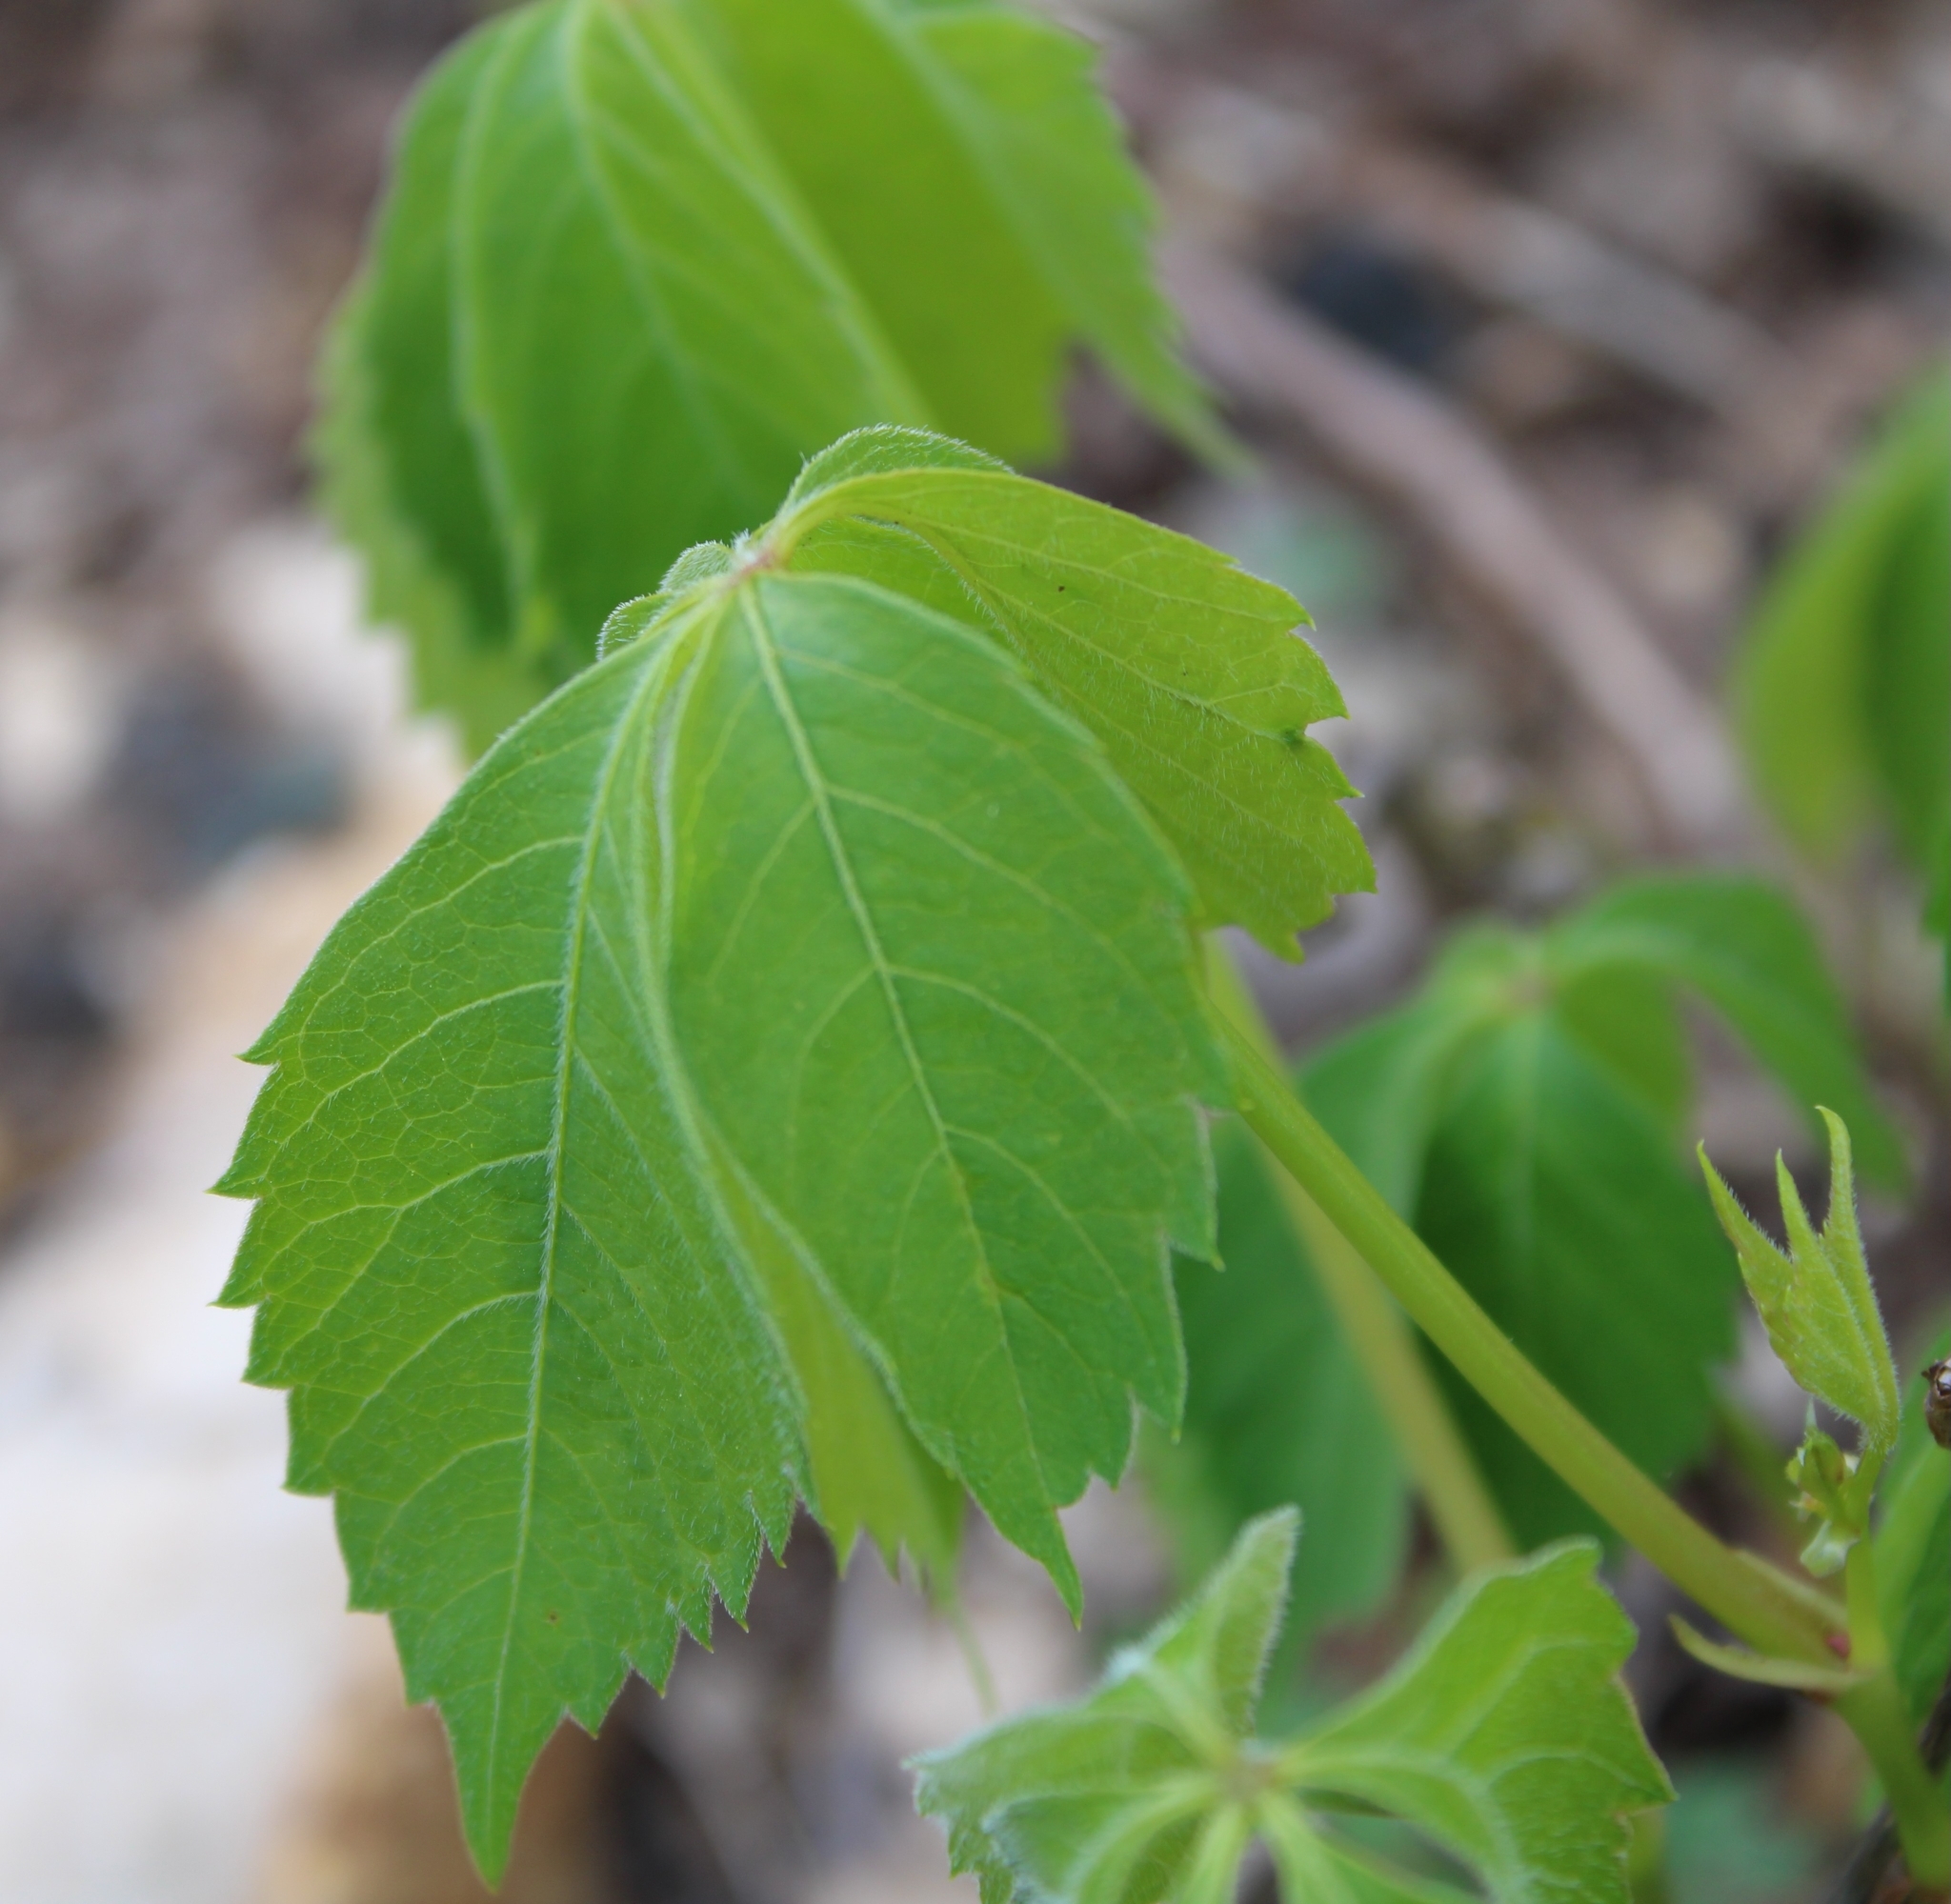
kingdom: Plantae
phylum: Tracheophyta
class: Magnoliopsida
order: Vitales
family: Vitaceae
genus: Parthenocissus
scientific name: Parthenocissus quinquefolia
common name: Virginia-creeper
